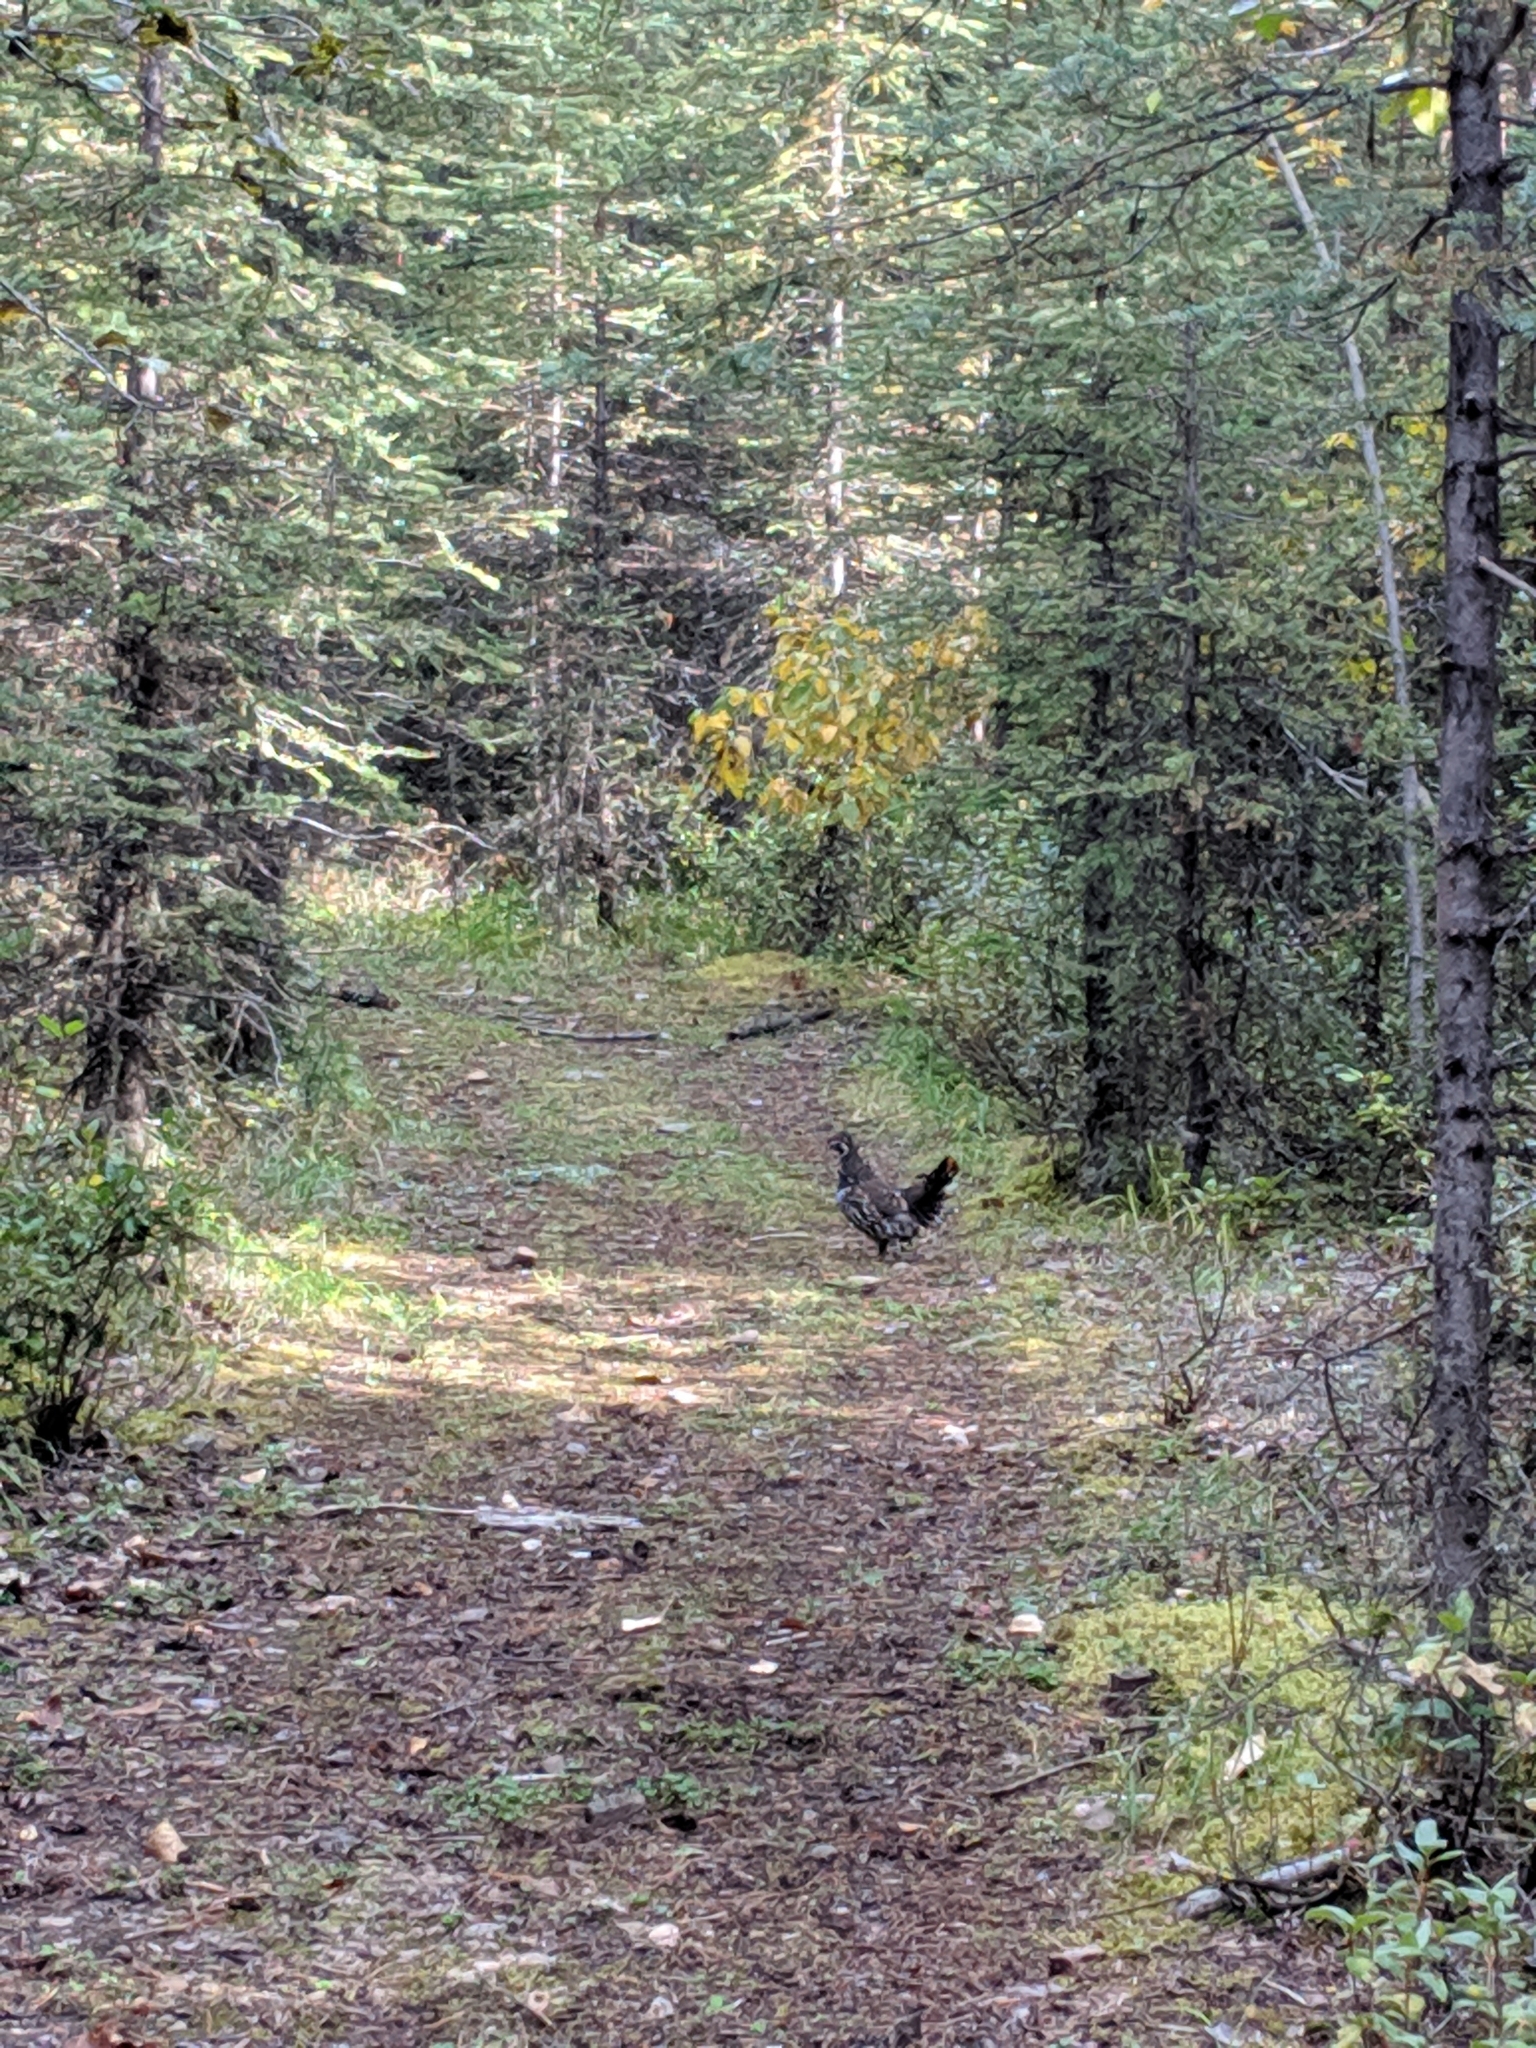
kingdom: Animalia
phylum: Chordata
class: Aves
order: Galliformes
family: Phasianidae
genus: Canachites
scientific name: Canachites canadensis
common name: Spruce grouse
